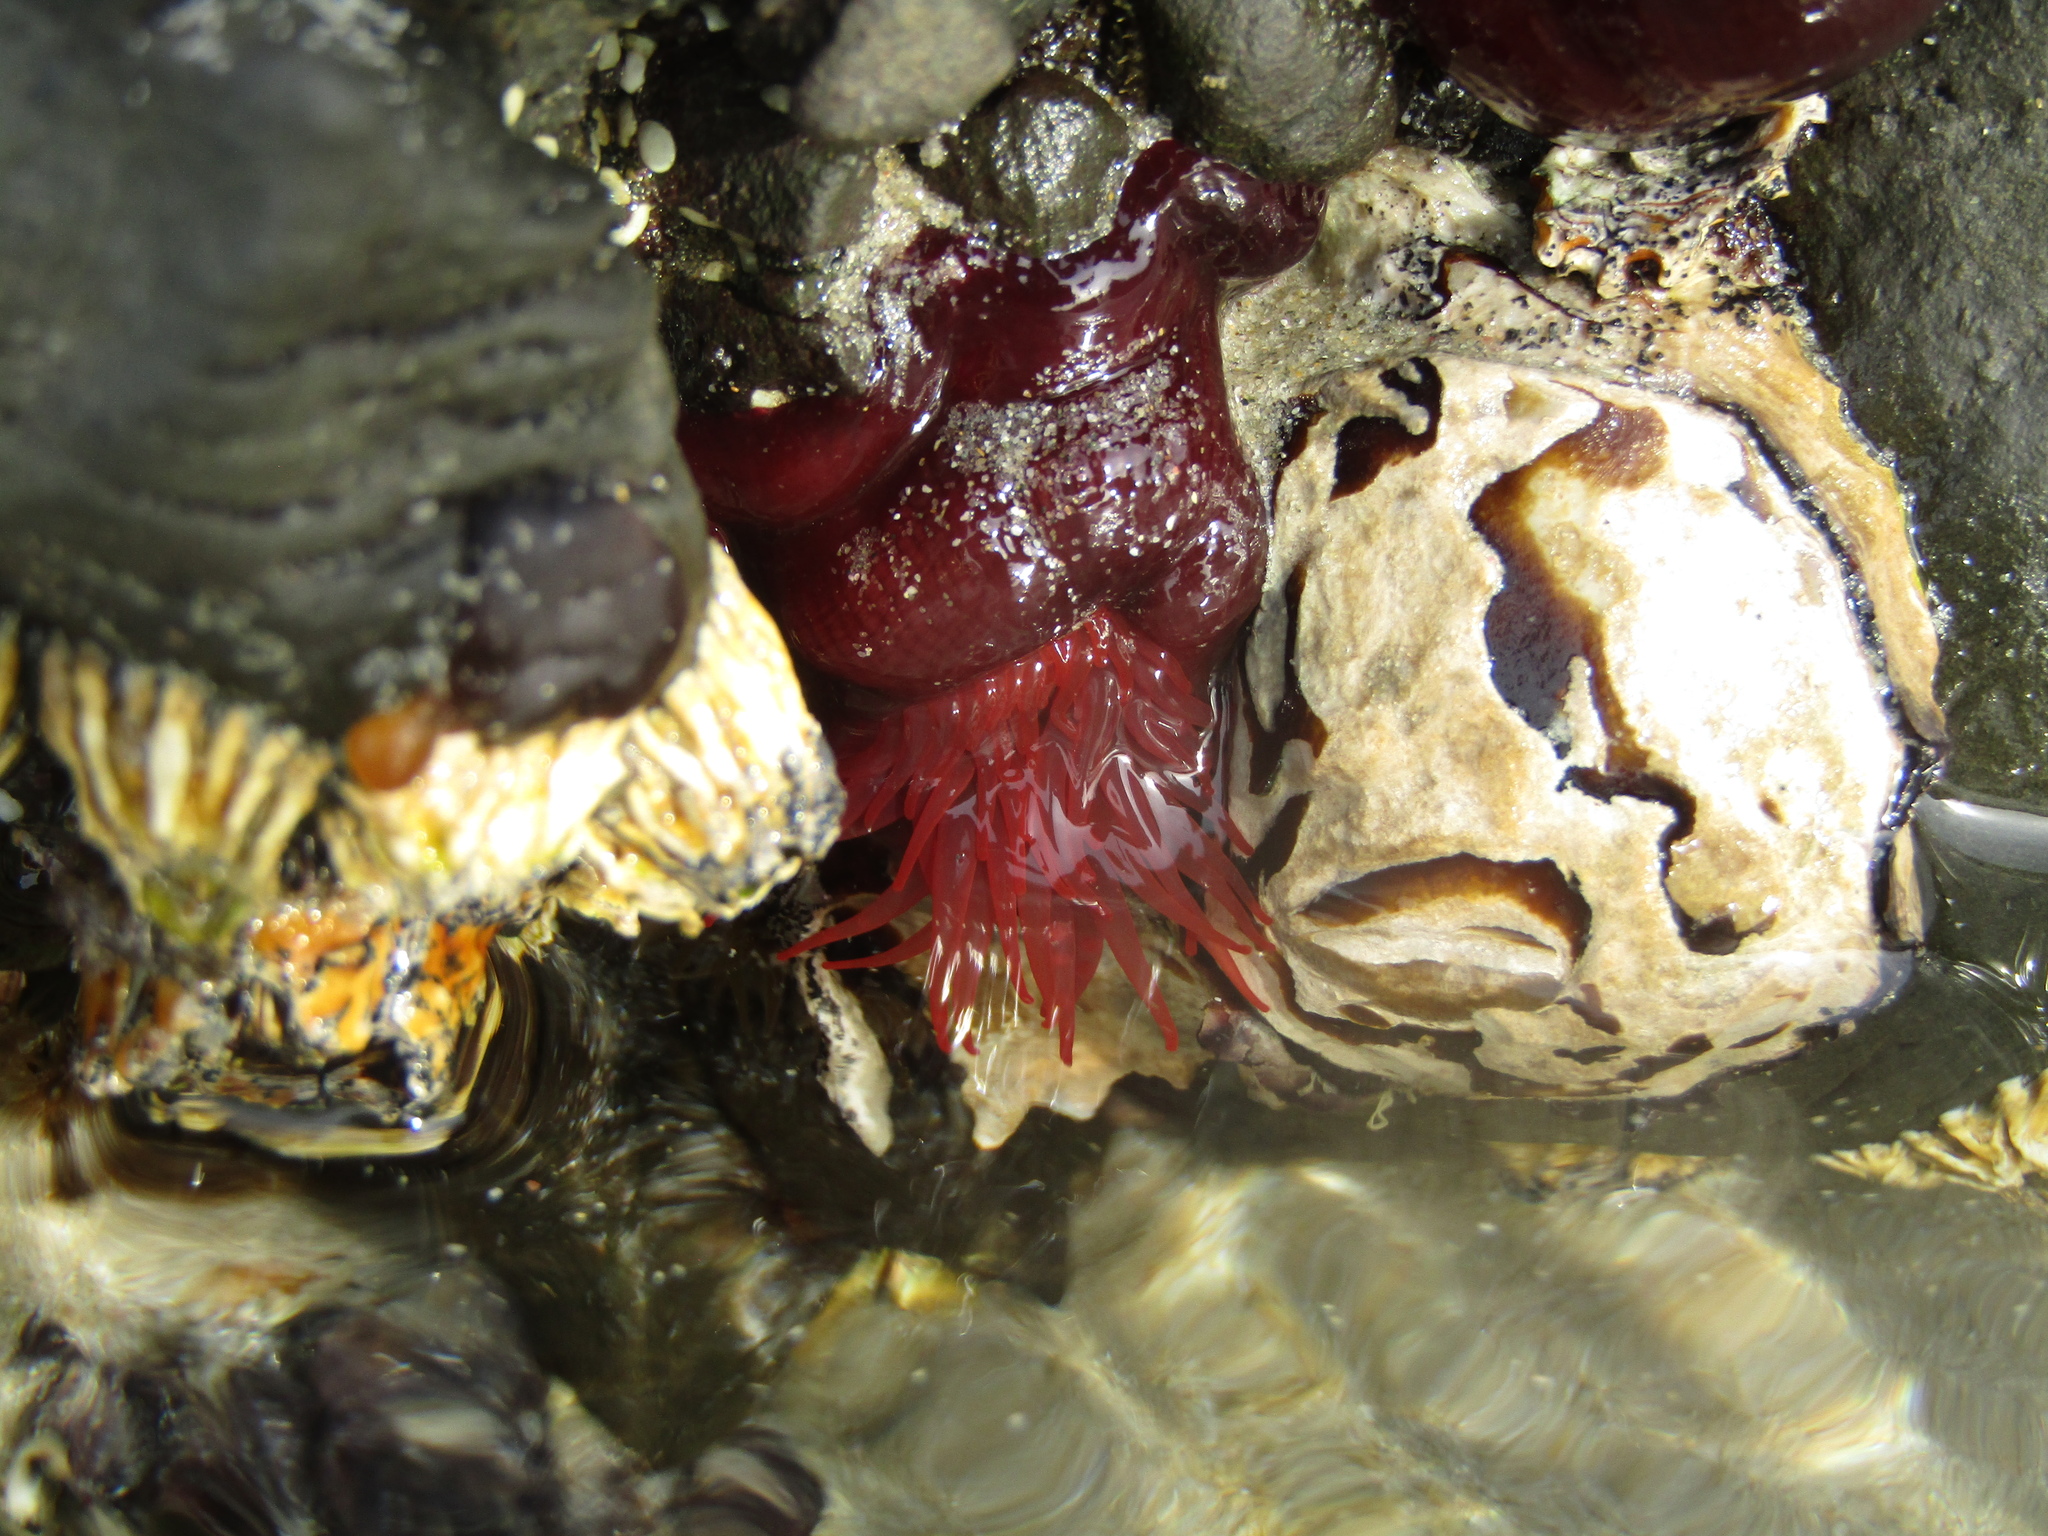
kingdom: Animalia
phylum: Cnidaria
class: Anthozoa
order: Actiniaria
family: Actiniidae
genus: Actinia
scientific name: Actinia tenebrosa
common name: Waratah anemone
